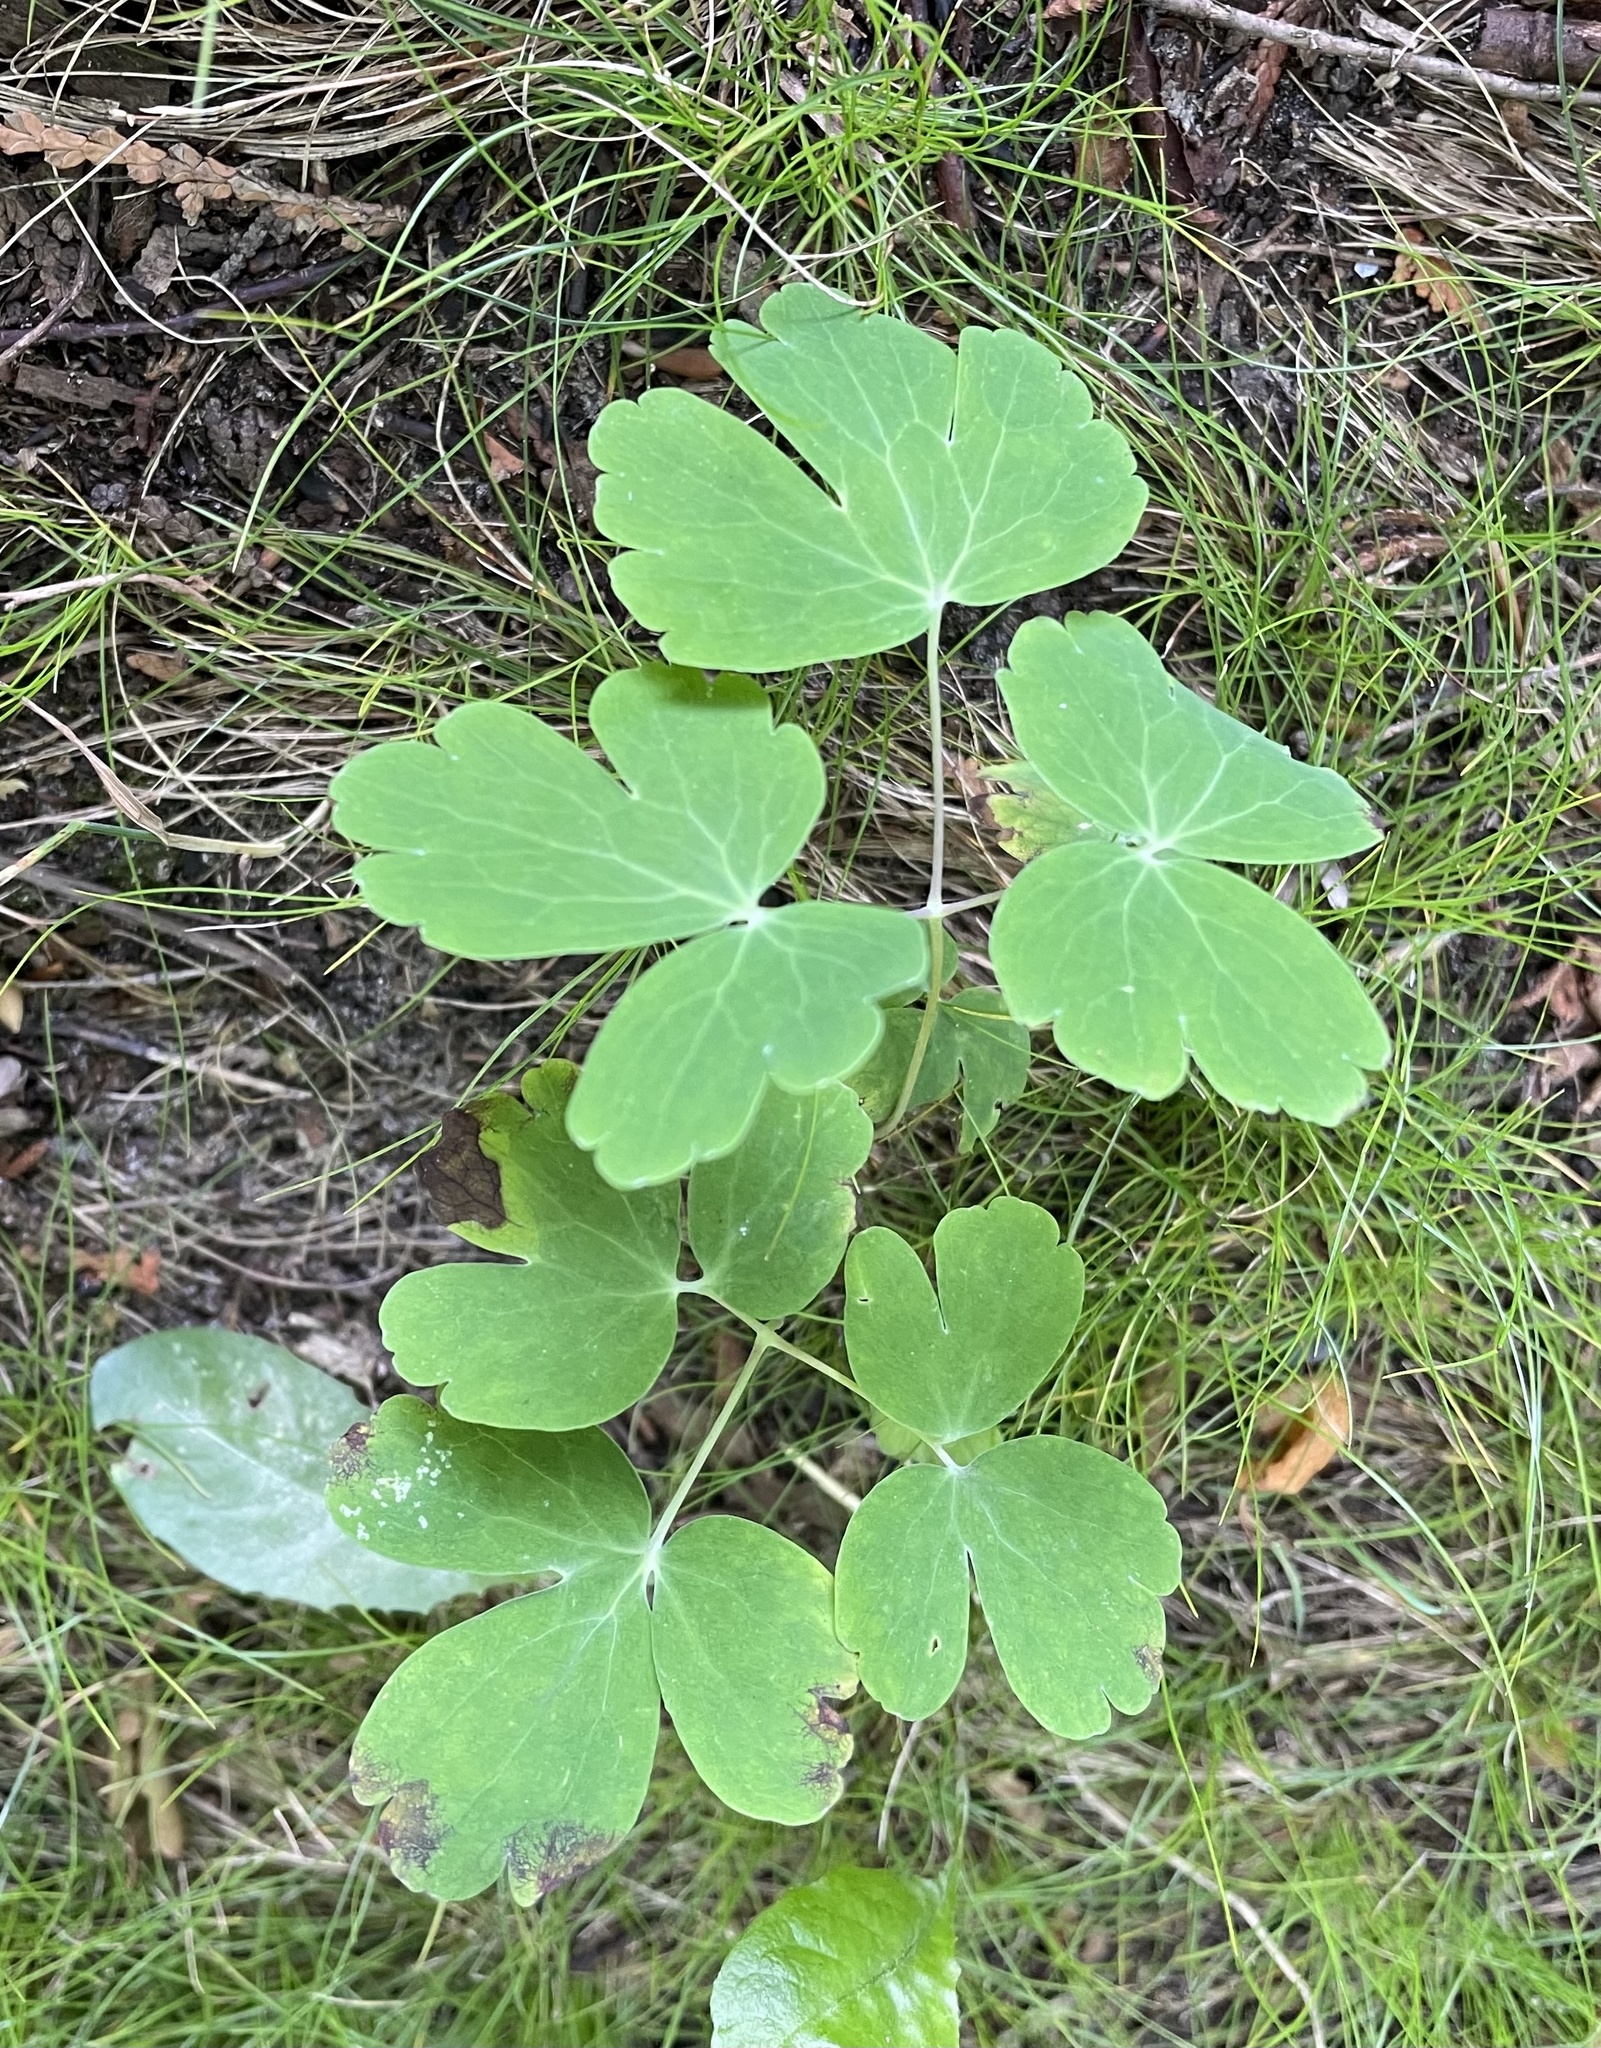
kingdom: Plantae
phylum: Tracheophyta
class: Magnoliopsida
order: Ranunculales
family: Ranunculaceae
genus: Aquilegia
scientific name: Aquilegia canadensis
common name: American columbine
